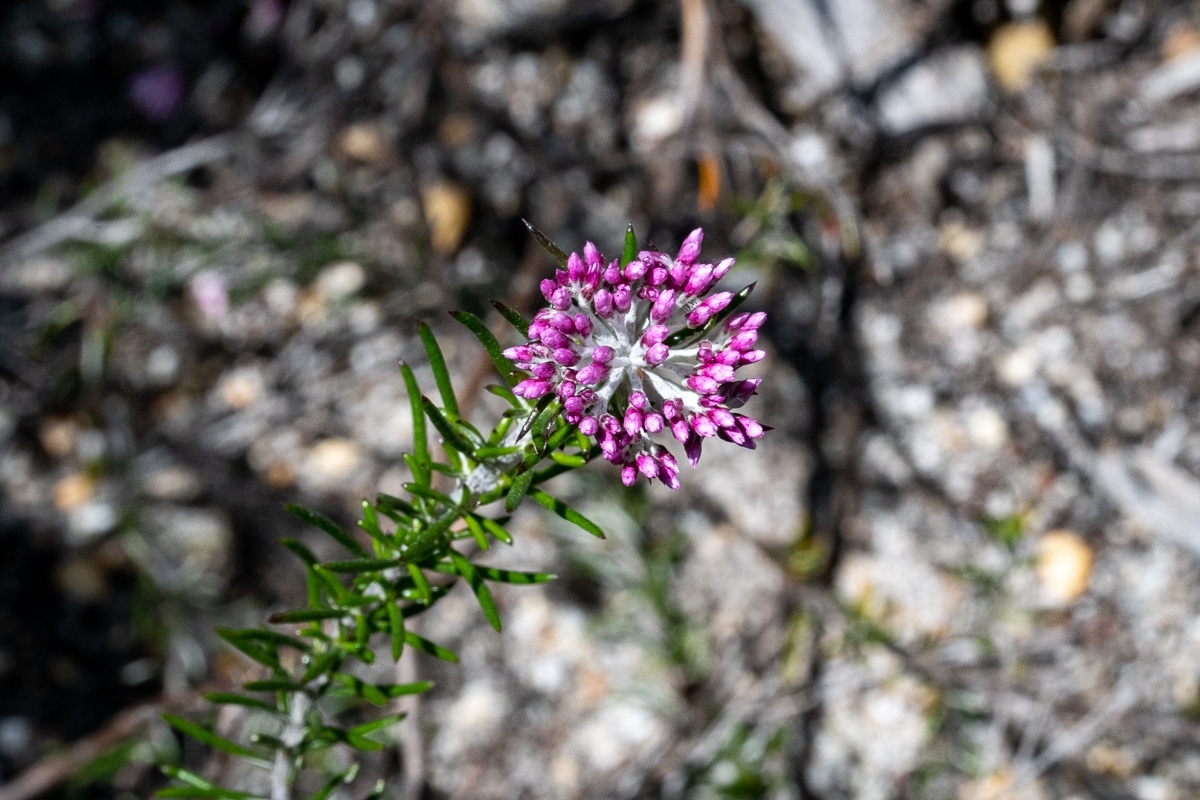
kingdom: Plantae
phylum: Tracheophyta
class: Magnoliopsida
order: Asterales
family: Asteraceae
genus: Metalasia
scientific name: Metalasia erubescens
